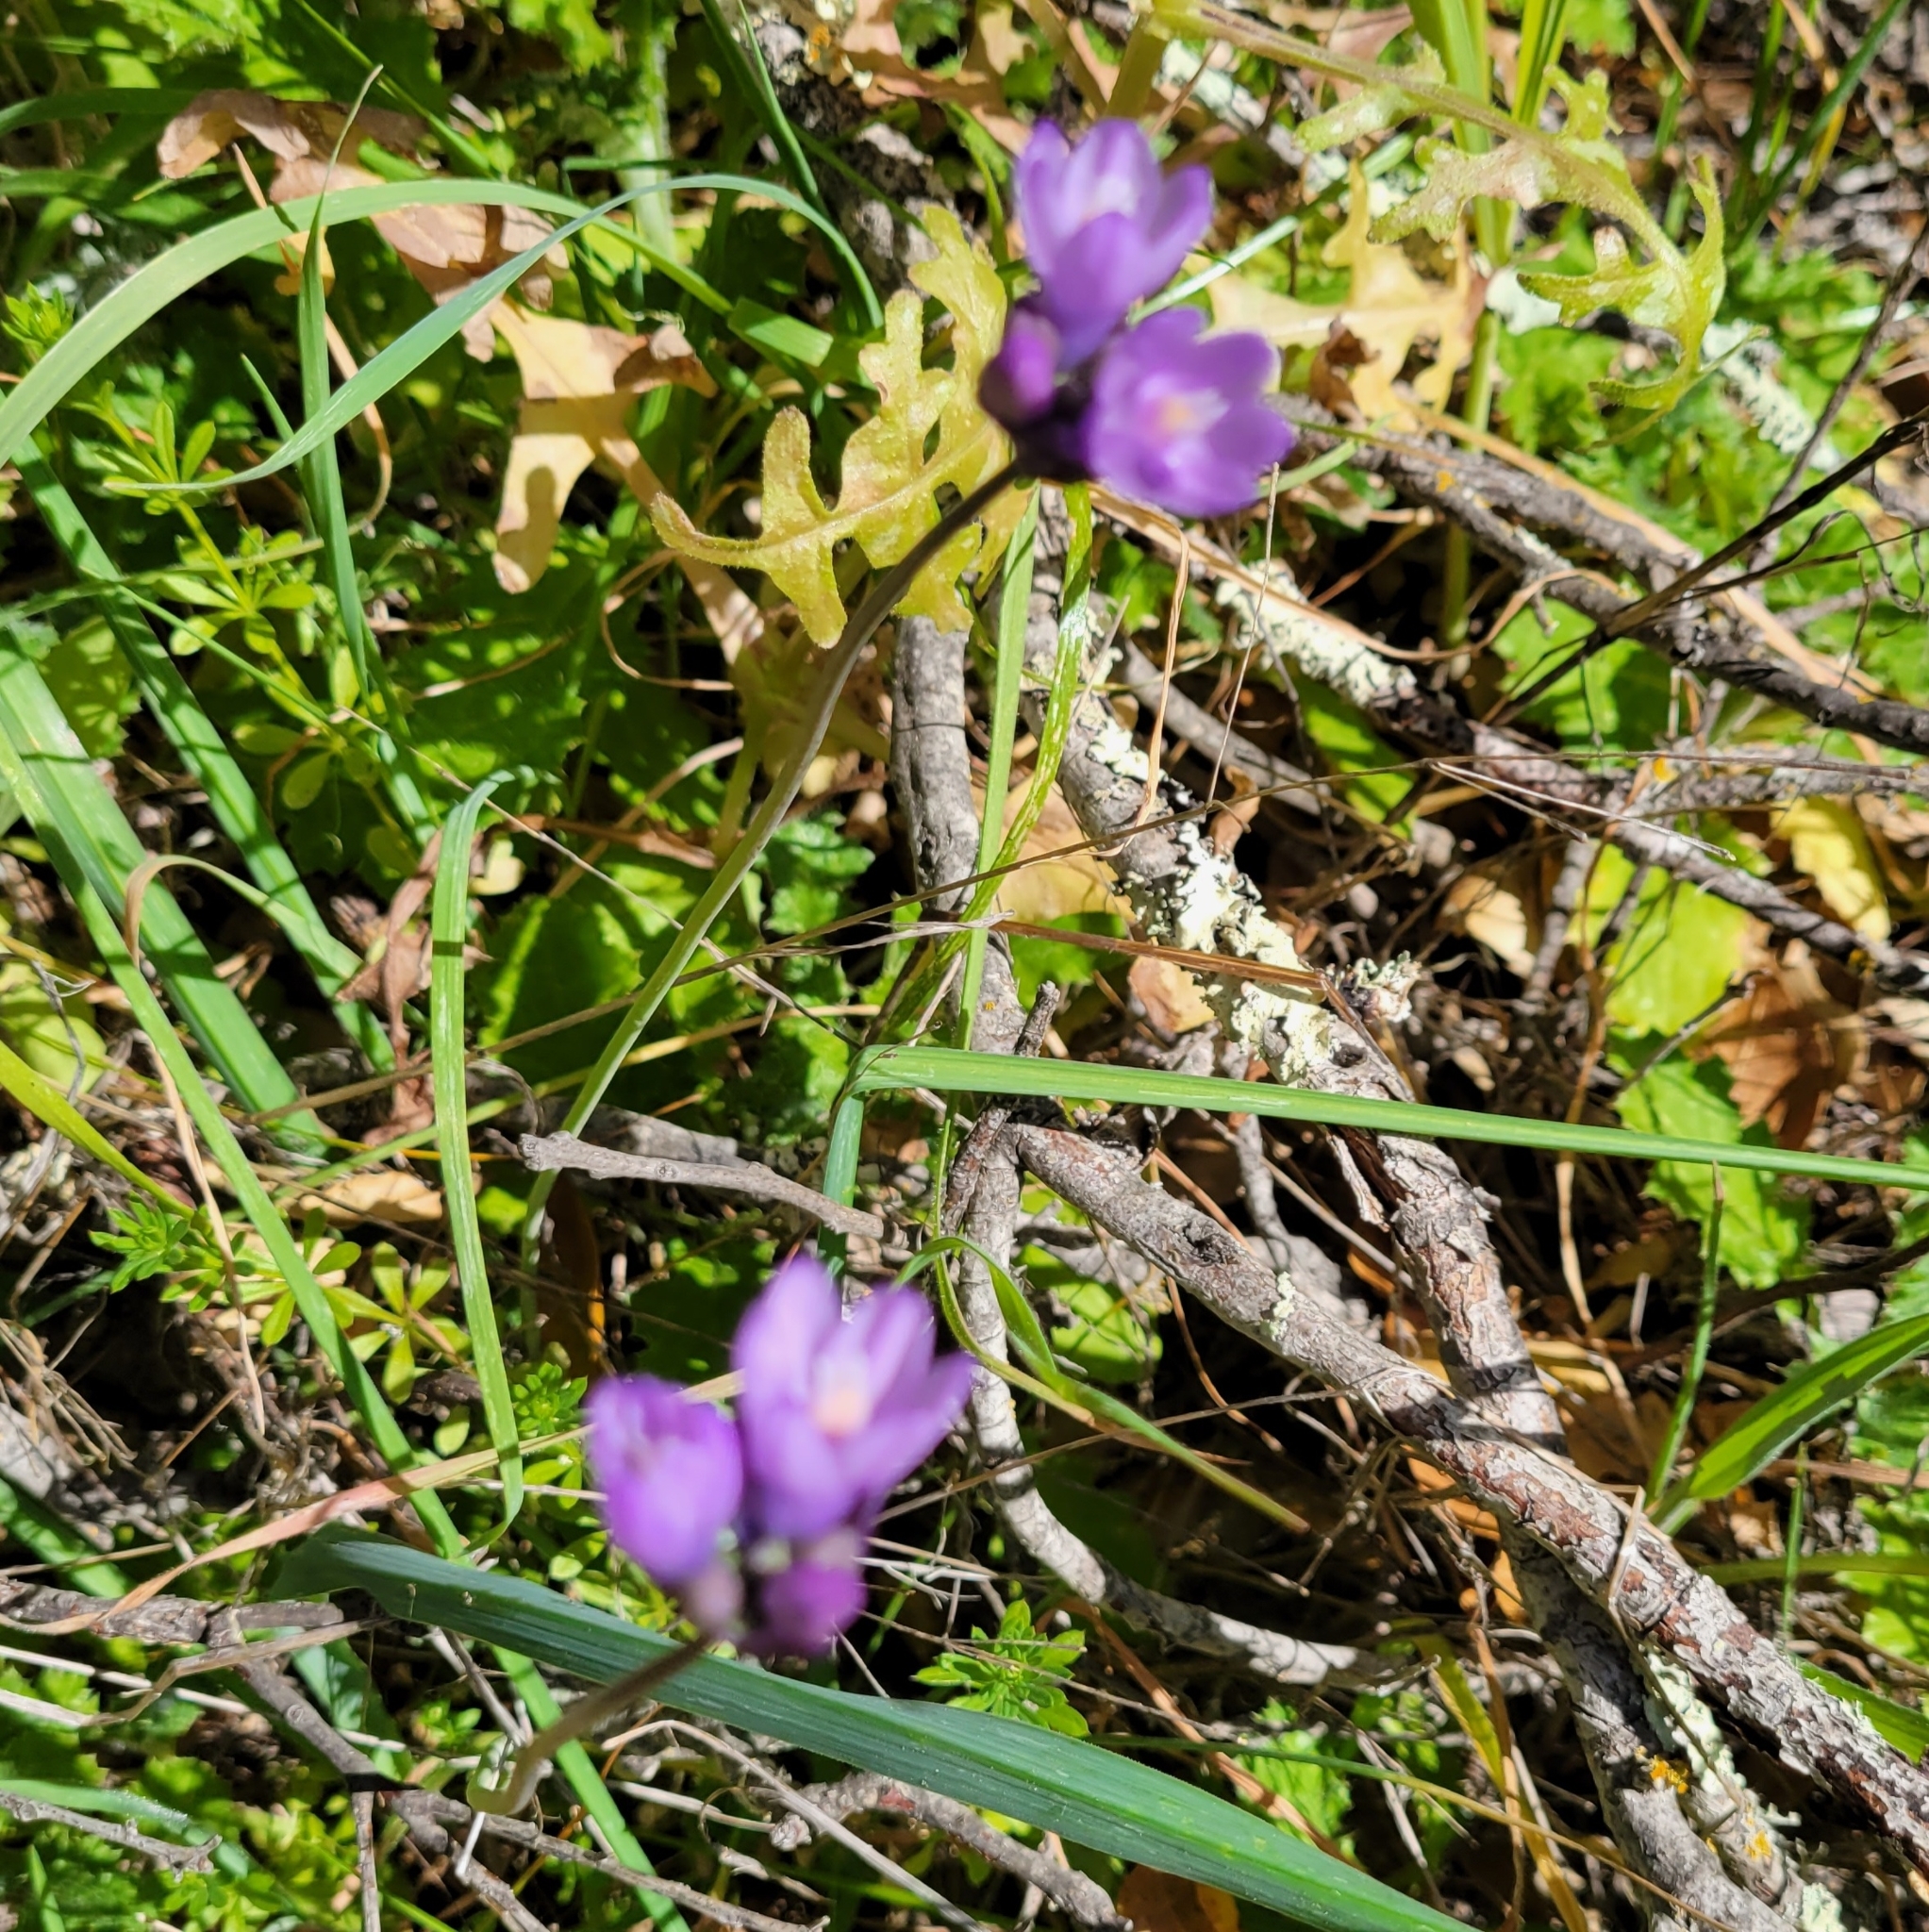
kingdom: Plantae
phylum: Tracheophyta
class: Liliopsida
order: Asparagales
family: Asparagaceae
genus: Dipterostemon
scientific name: Dipterostemon capitatus
